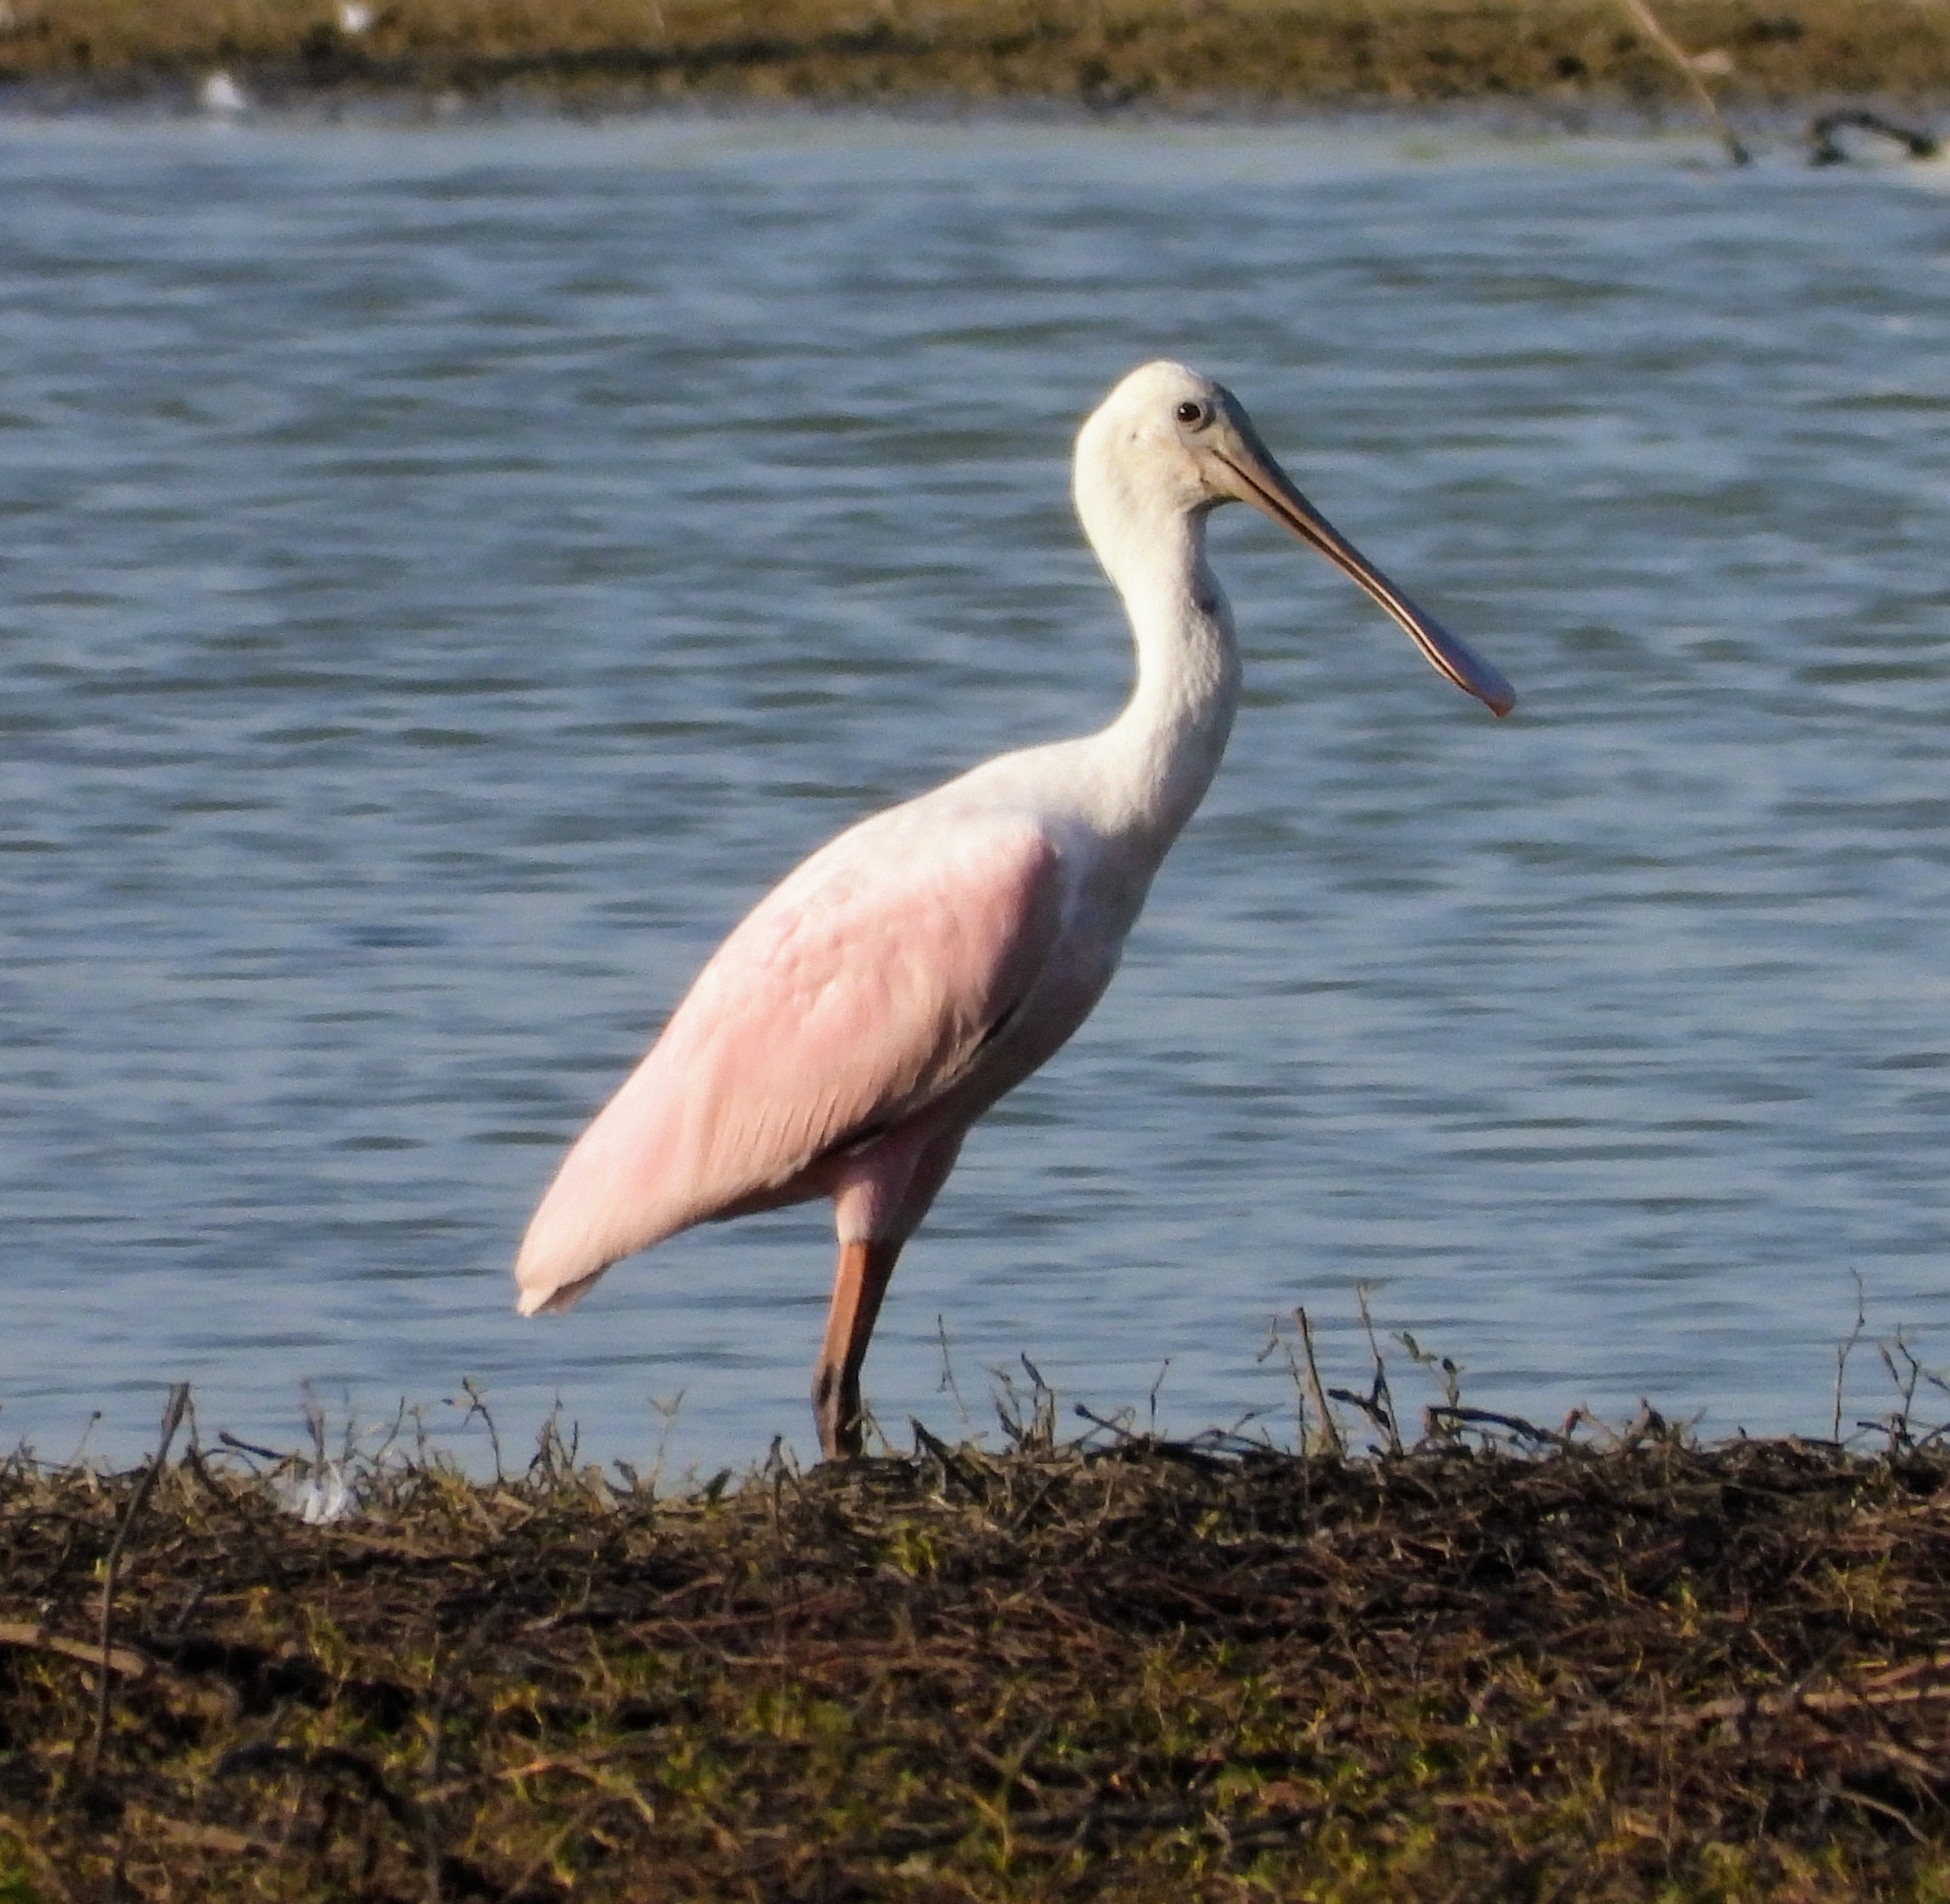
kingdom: Animalia
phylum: Chordata
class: Aves
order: Pelecaniformes
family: Threskiornithidae
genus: Platalea
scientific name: Platalea ajaja
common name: Roseate spoonbill
